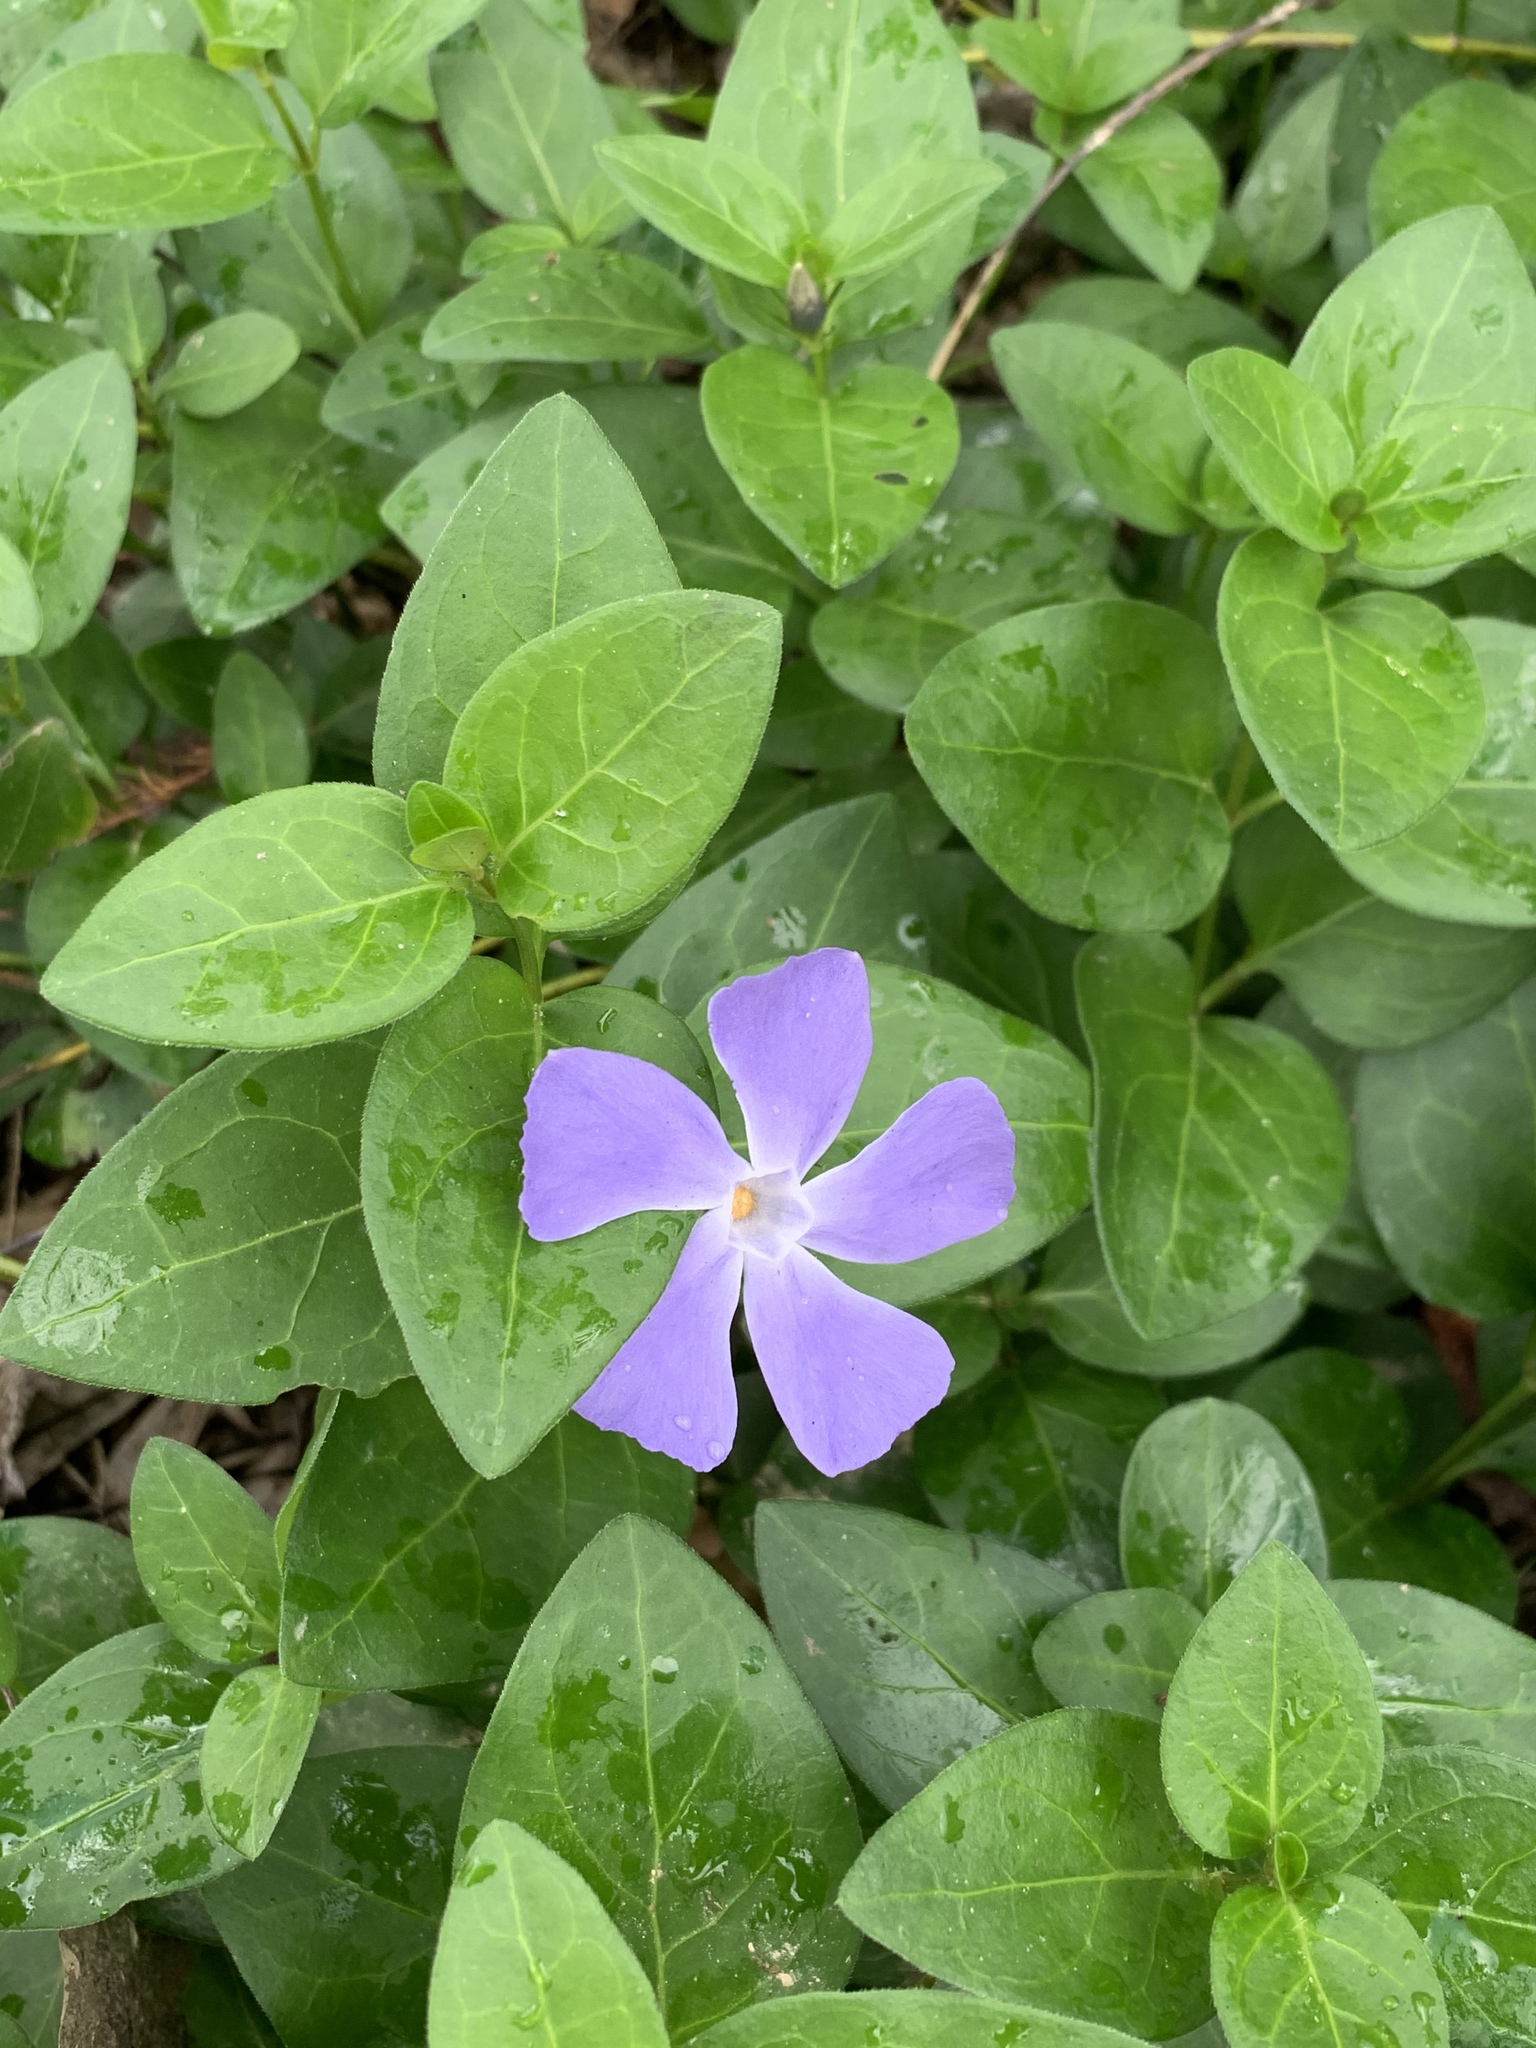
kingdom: Plantae
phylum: Tracheophyta
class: Magnoliopsida
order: Gentianales
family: Apocynaceae
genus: Vinca
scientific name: Vinca major
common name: Greater periwinkle
